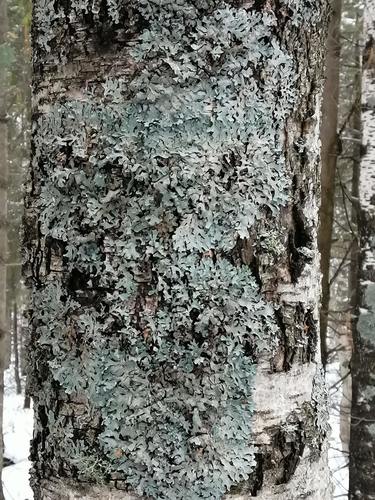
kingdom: Fungi
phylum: Ascomycota
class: Lecanoromycetes
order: Lecanorales
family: Parmeliaceae
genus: Parmelia
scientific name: Parmelia sulcata
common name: Netted shield lichen
